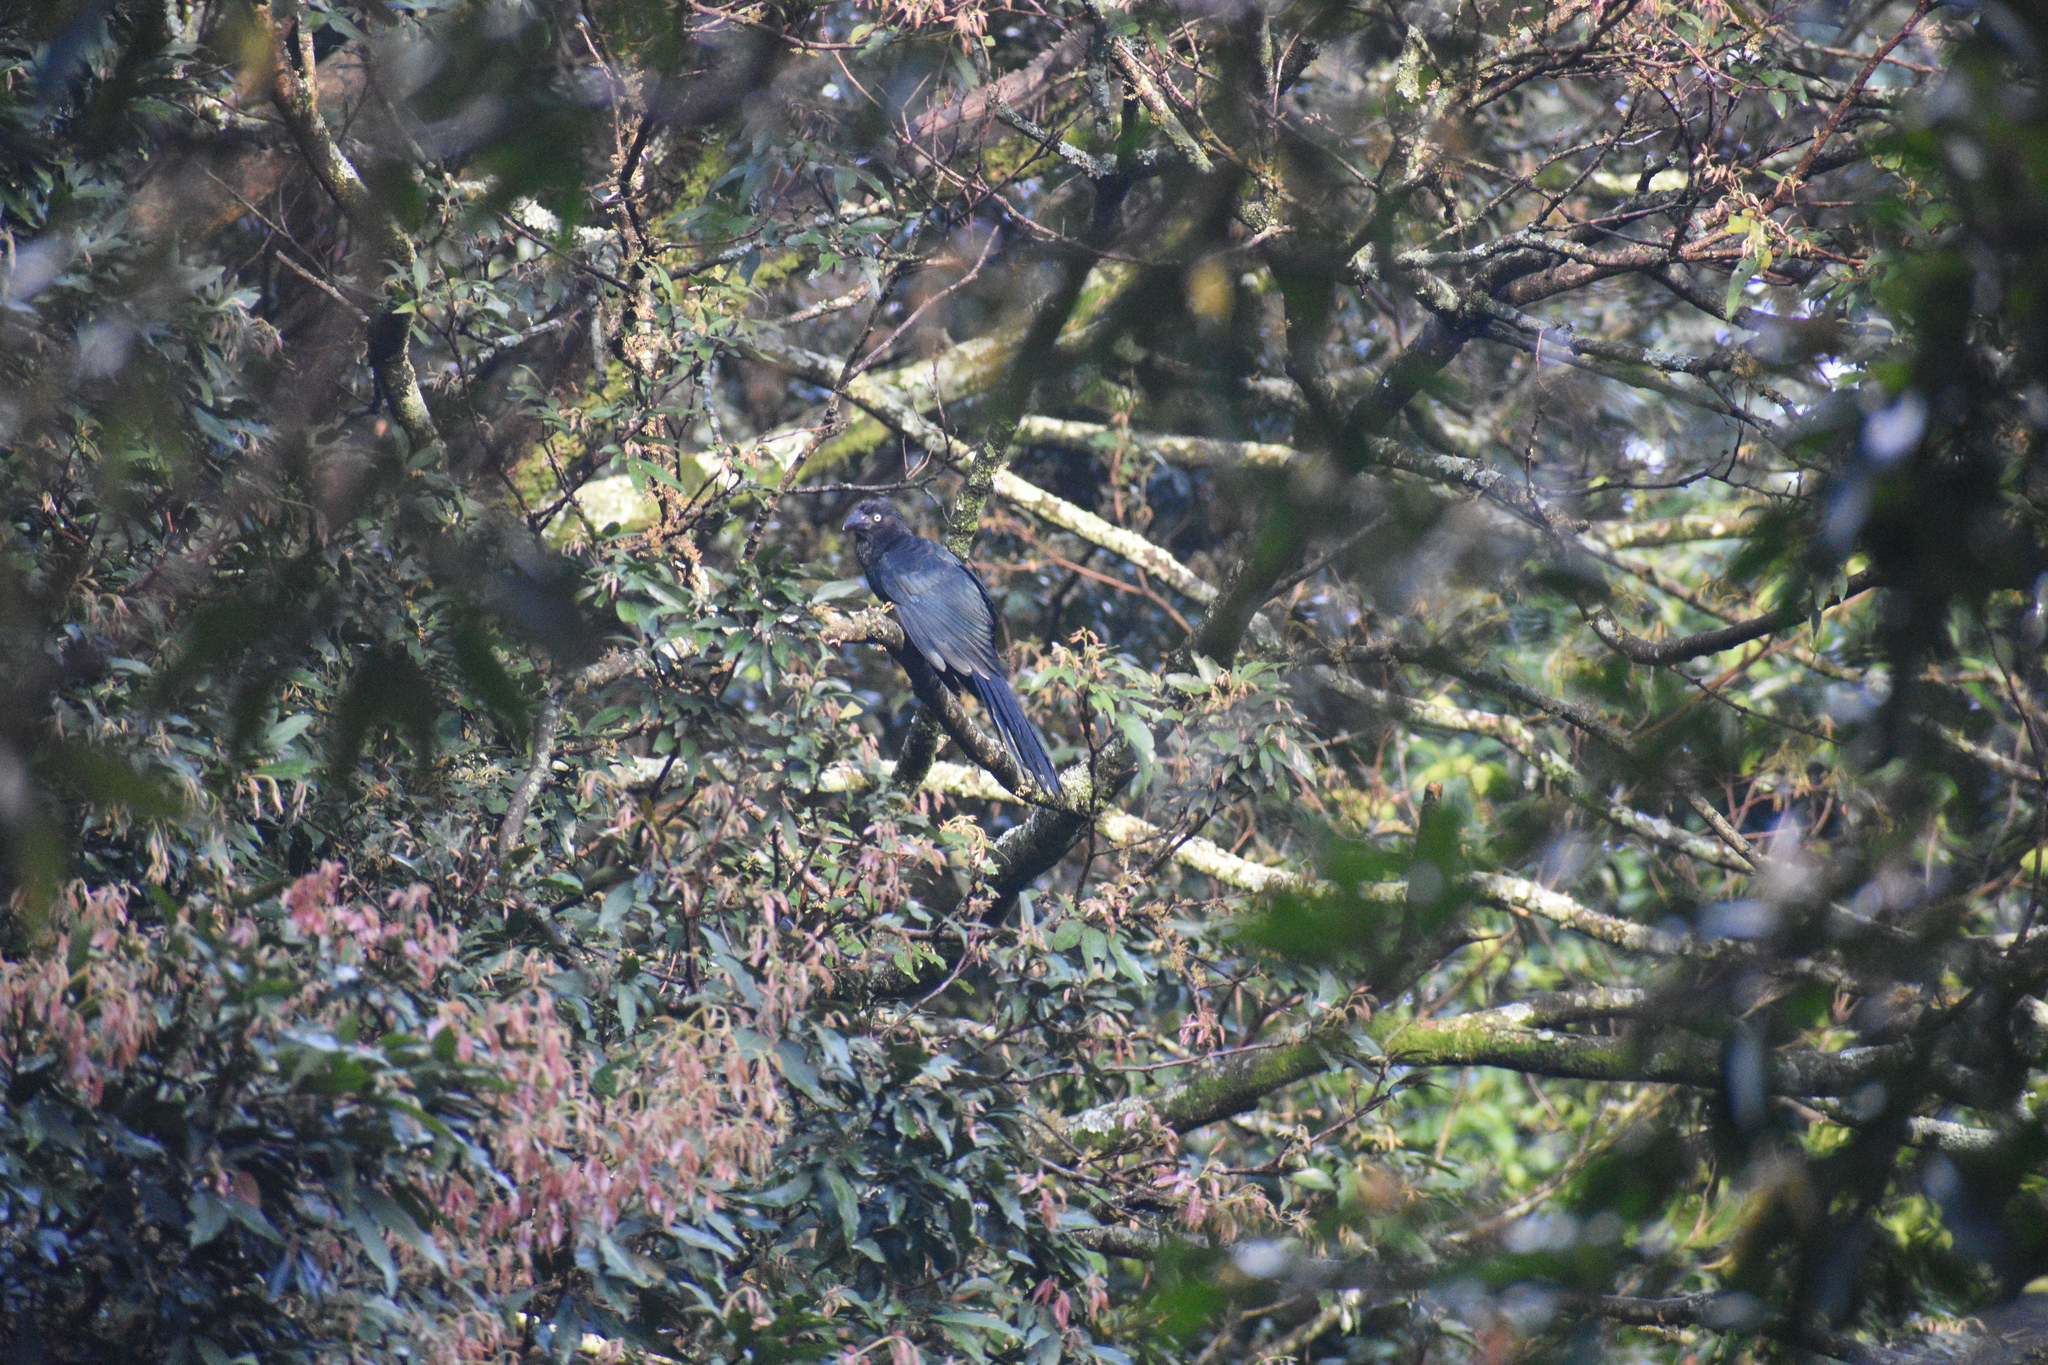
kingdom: Animalia
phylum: Chordata
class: Aves
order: Cuculiformes
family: Cuculidae
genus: Crotophaga
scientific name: Crotophaga major
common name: Greater ani
